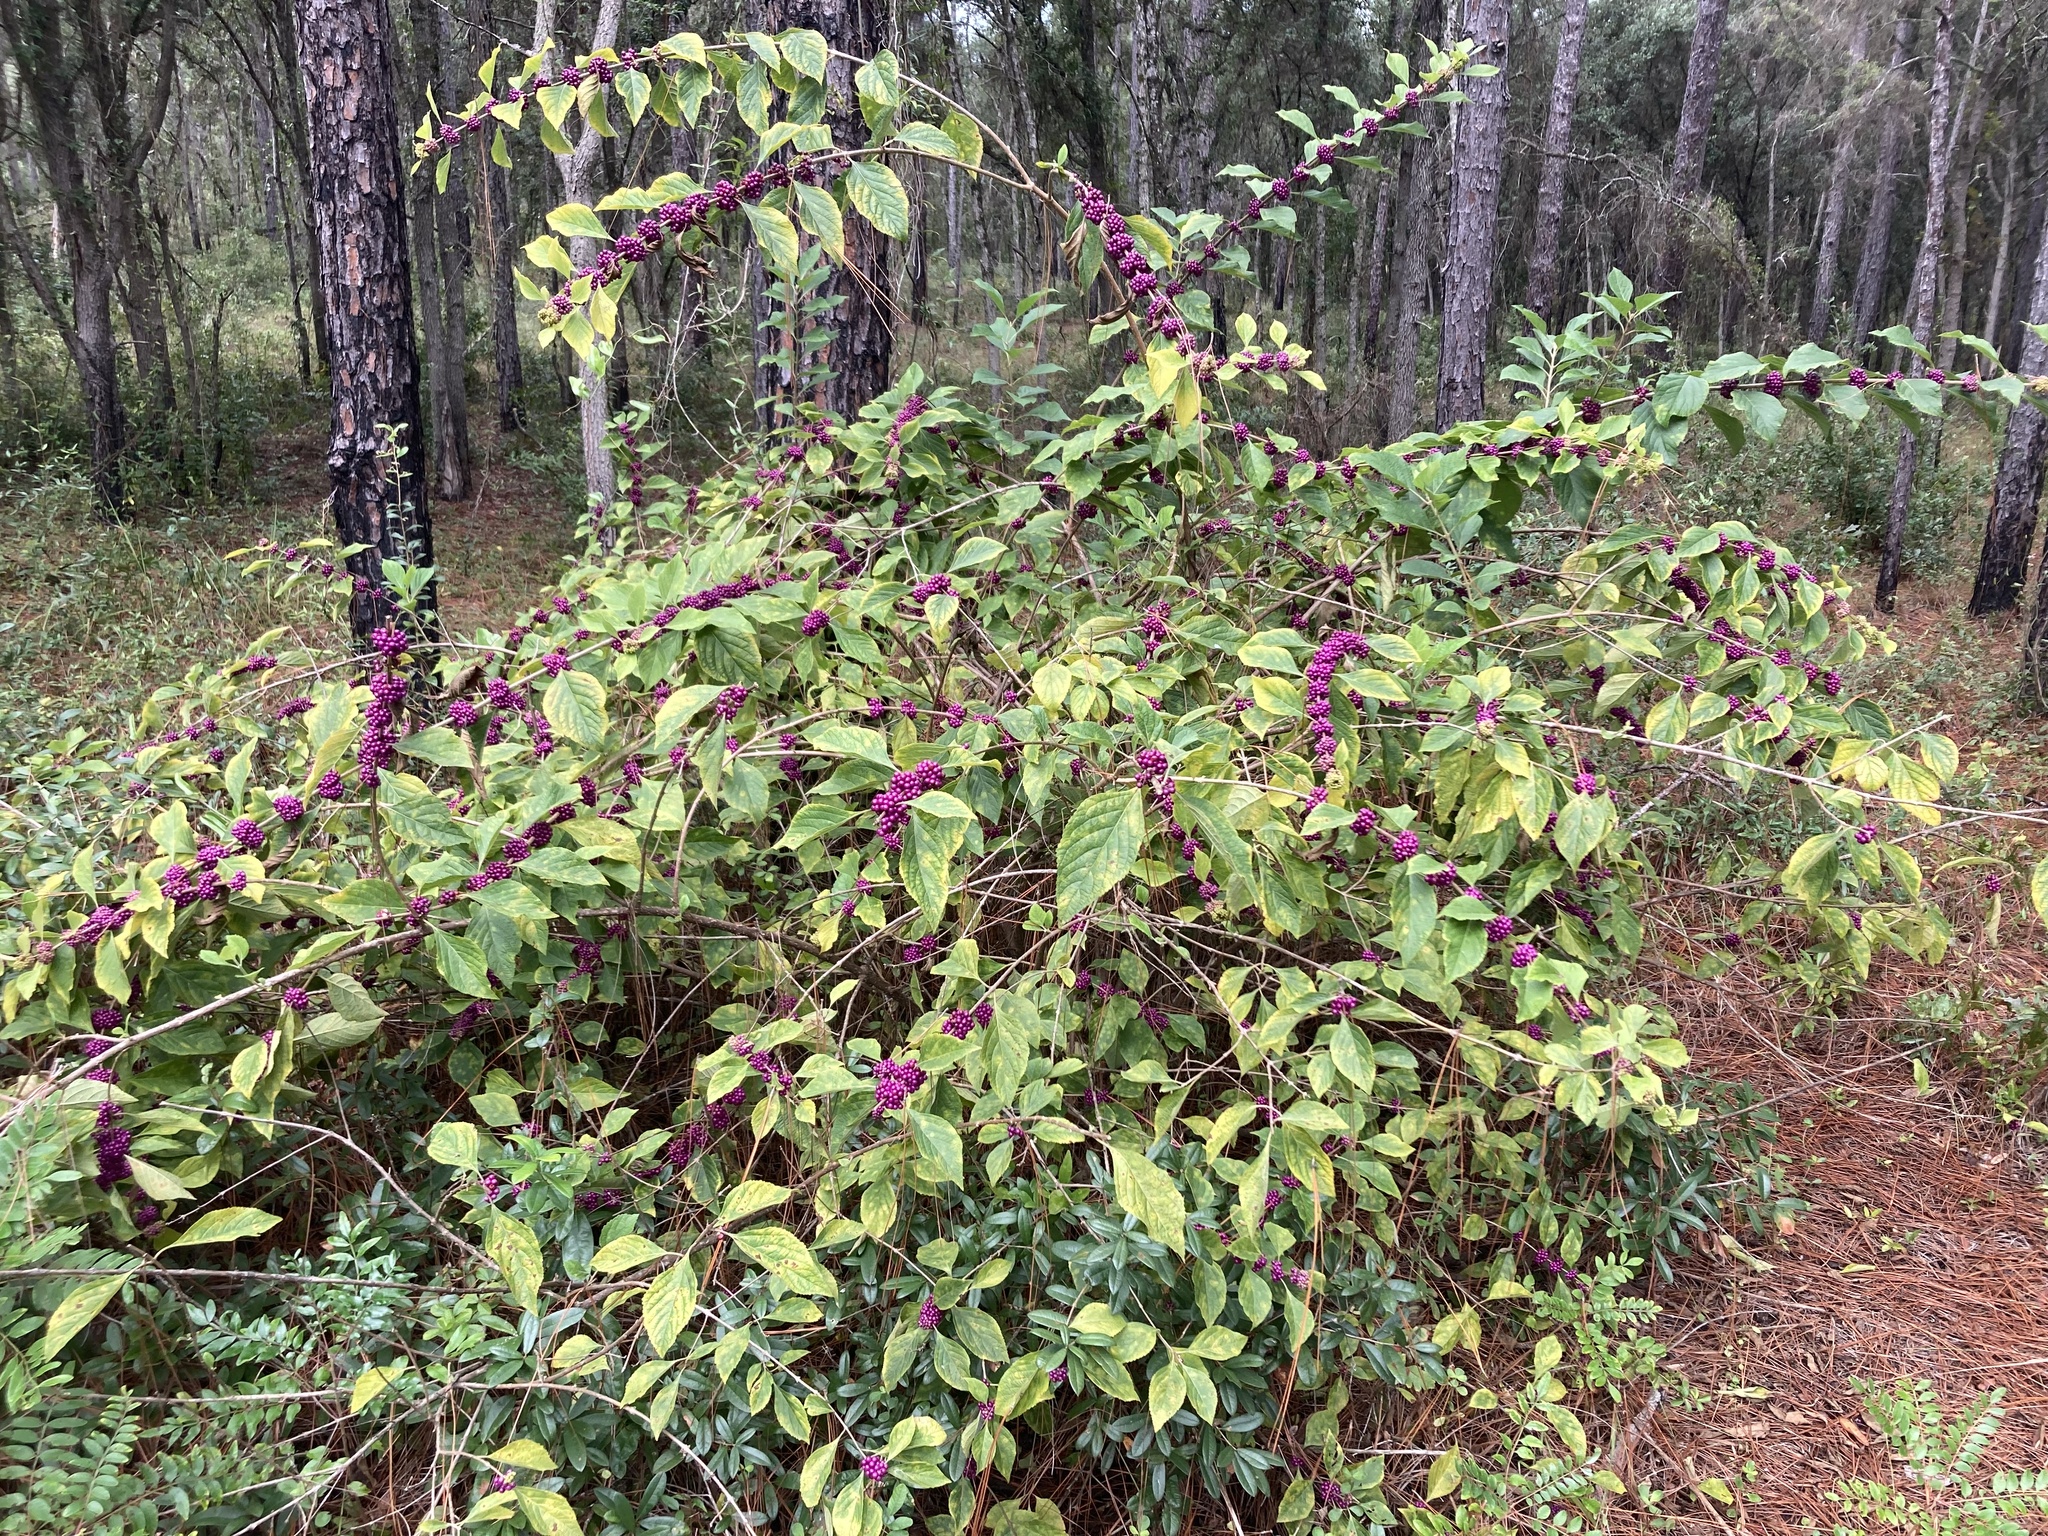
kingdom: Plantae
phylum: Tracheophyta
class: Magnoliopsida
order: Lamiales
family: Lamiaceae
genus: Callicarpa
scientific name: Callicarpa americana
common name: American beautyberry
